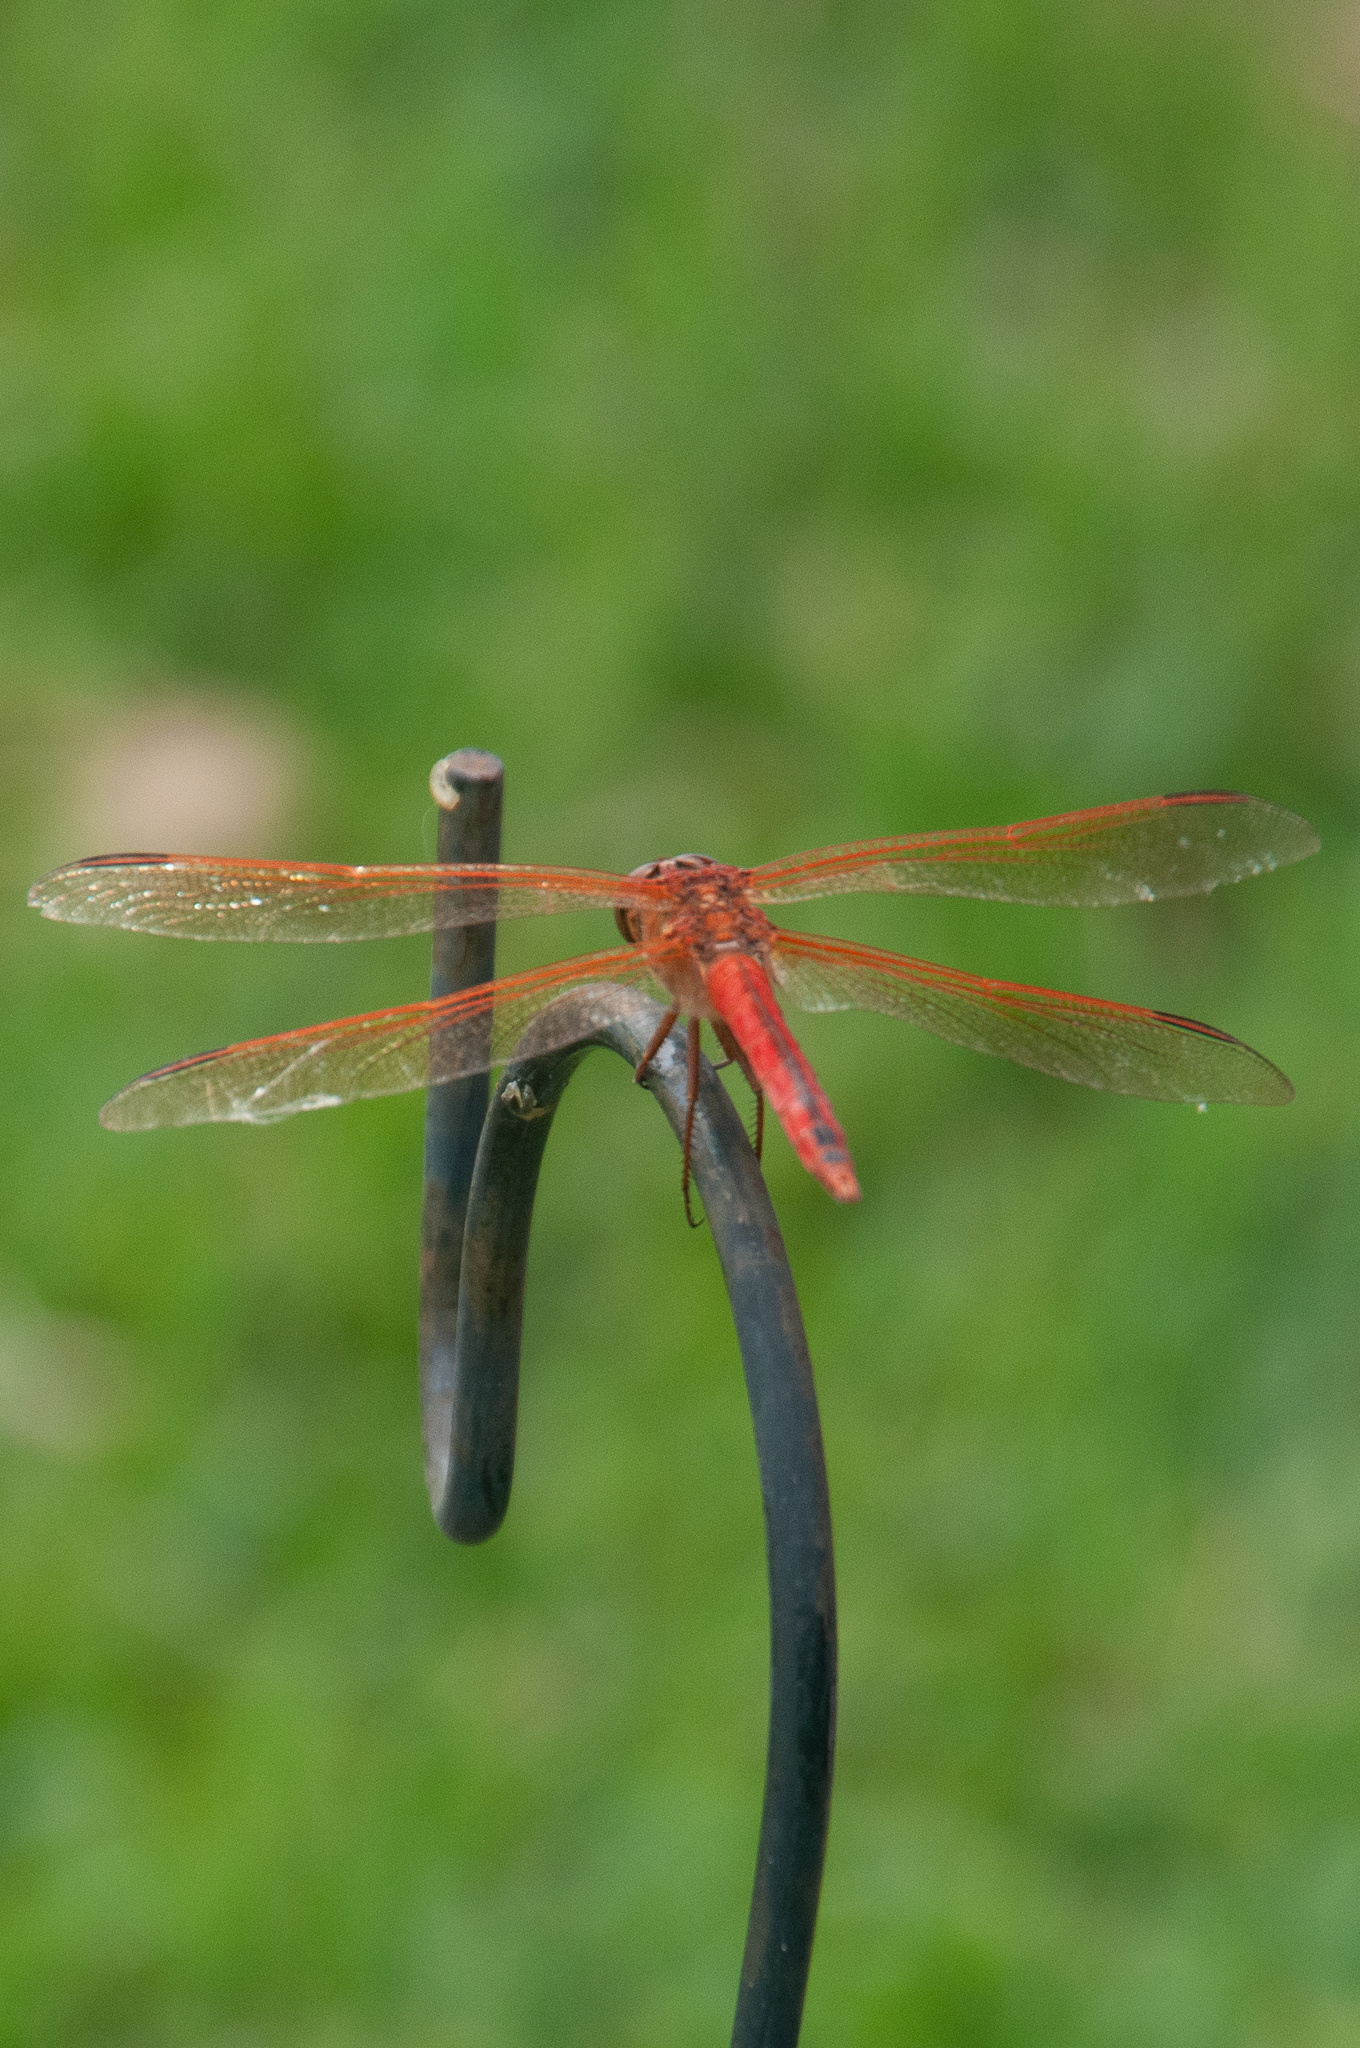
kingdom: Animalia
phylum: Arthropoda
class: Insecta
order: Odonata
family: Libellulidae
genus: Libellula
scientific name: Libellula needhami
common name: Needham's skimmer
